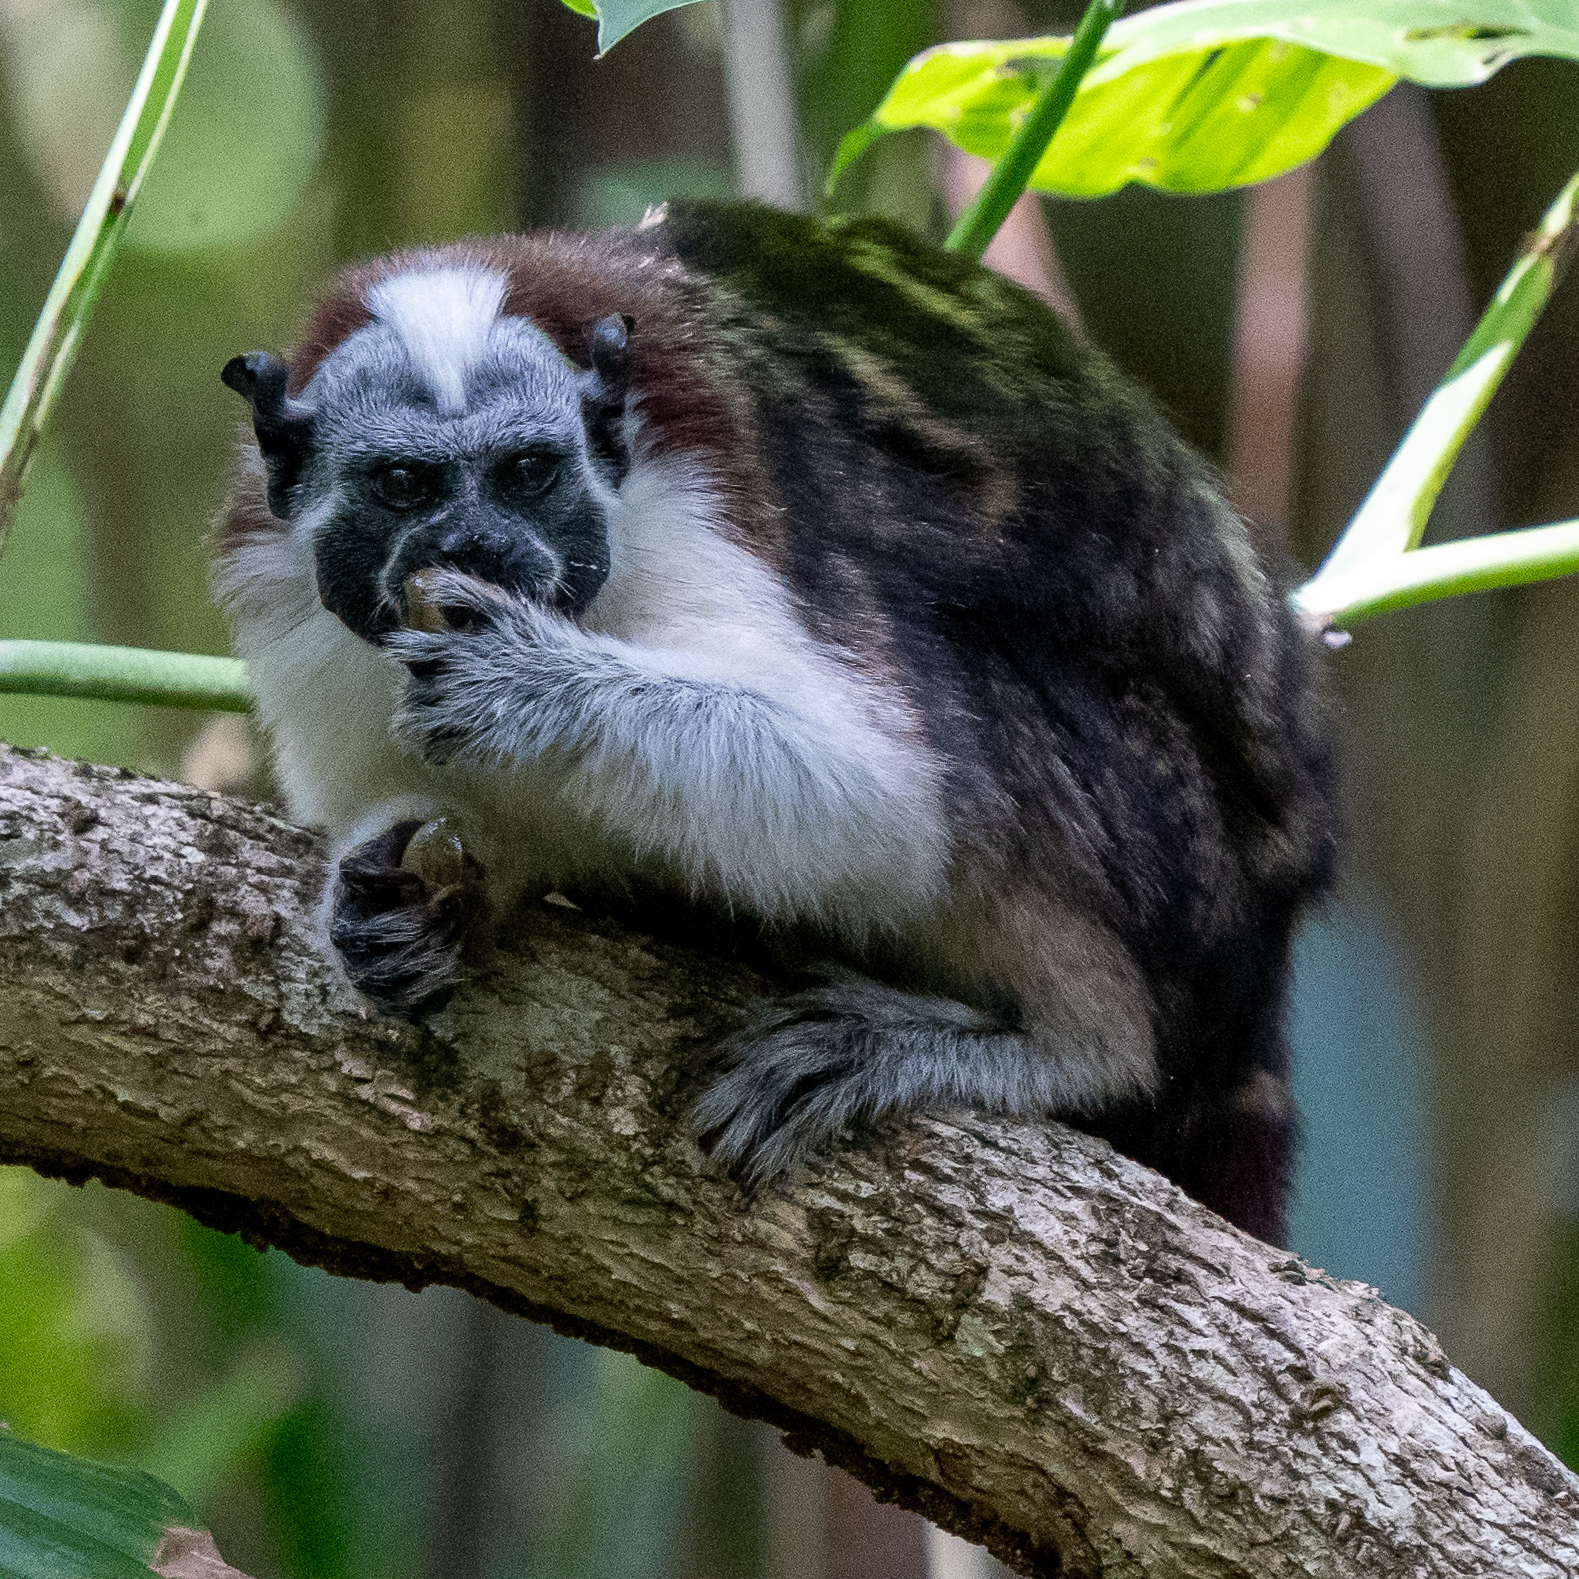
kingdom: Animalia
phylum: Chordata
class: Mammalia
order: Primates
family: Callitrichidae
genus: Saguinus
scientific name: Saguinus geoffroyi
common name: Geoffroy s tamarin
